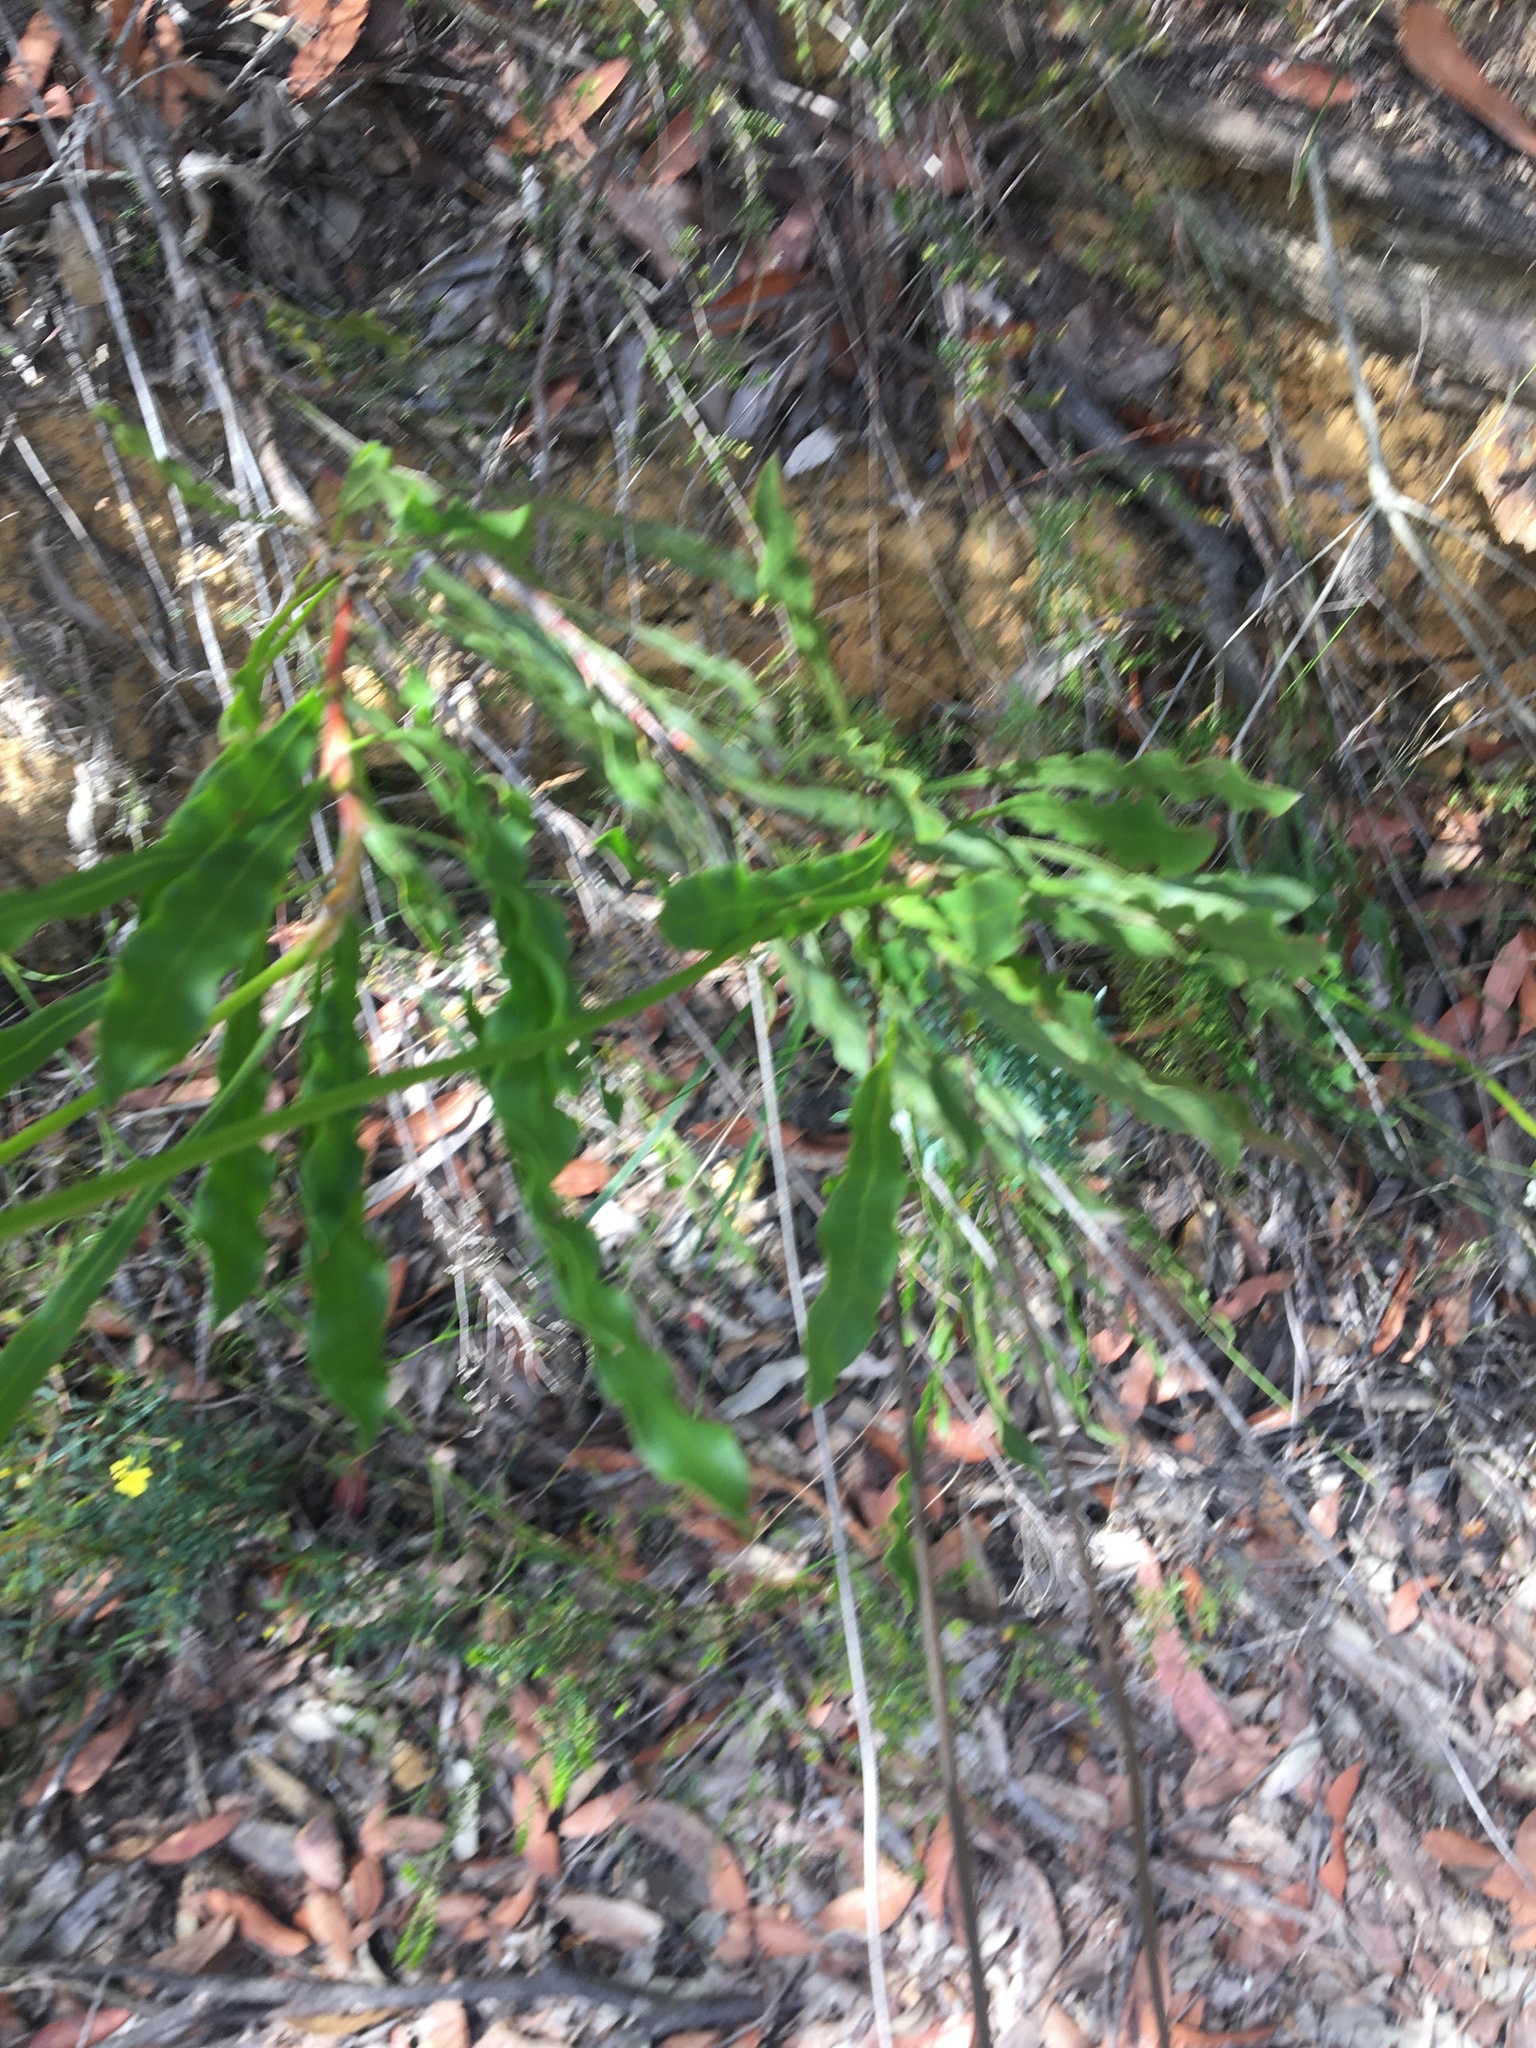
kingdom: Plantae
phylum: Tracheophyta
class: Magnoliopsida
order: Proteales
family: Proteaceae
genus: Conospermum
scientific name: Conospermum longifolium
